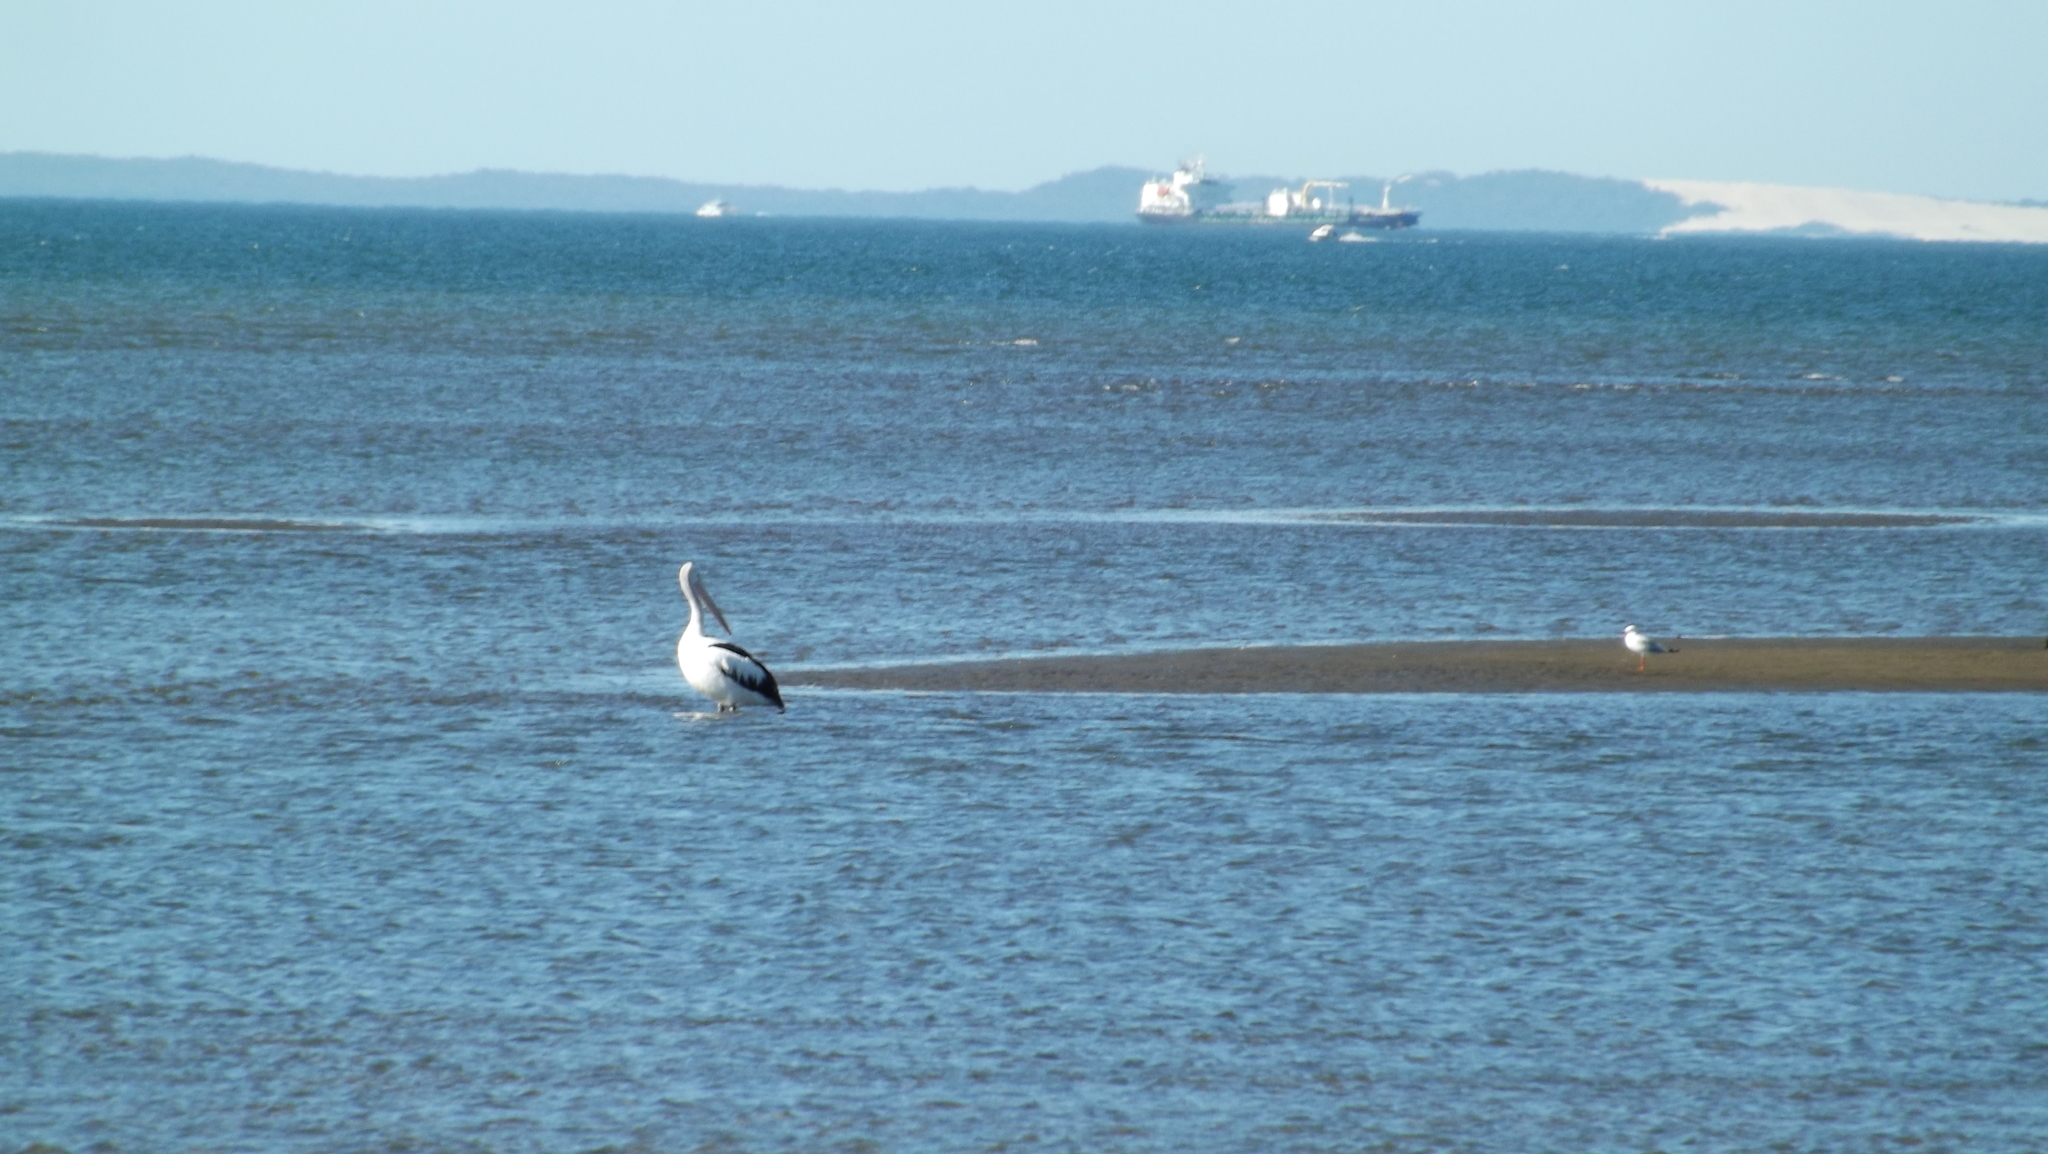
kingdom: Animalia
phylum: Chordata
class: Aves
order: Pelecaniformes
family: Pelecanidae
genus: Pelecanus
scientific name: Pelecanus conspicillatus
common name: Australian pelican
